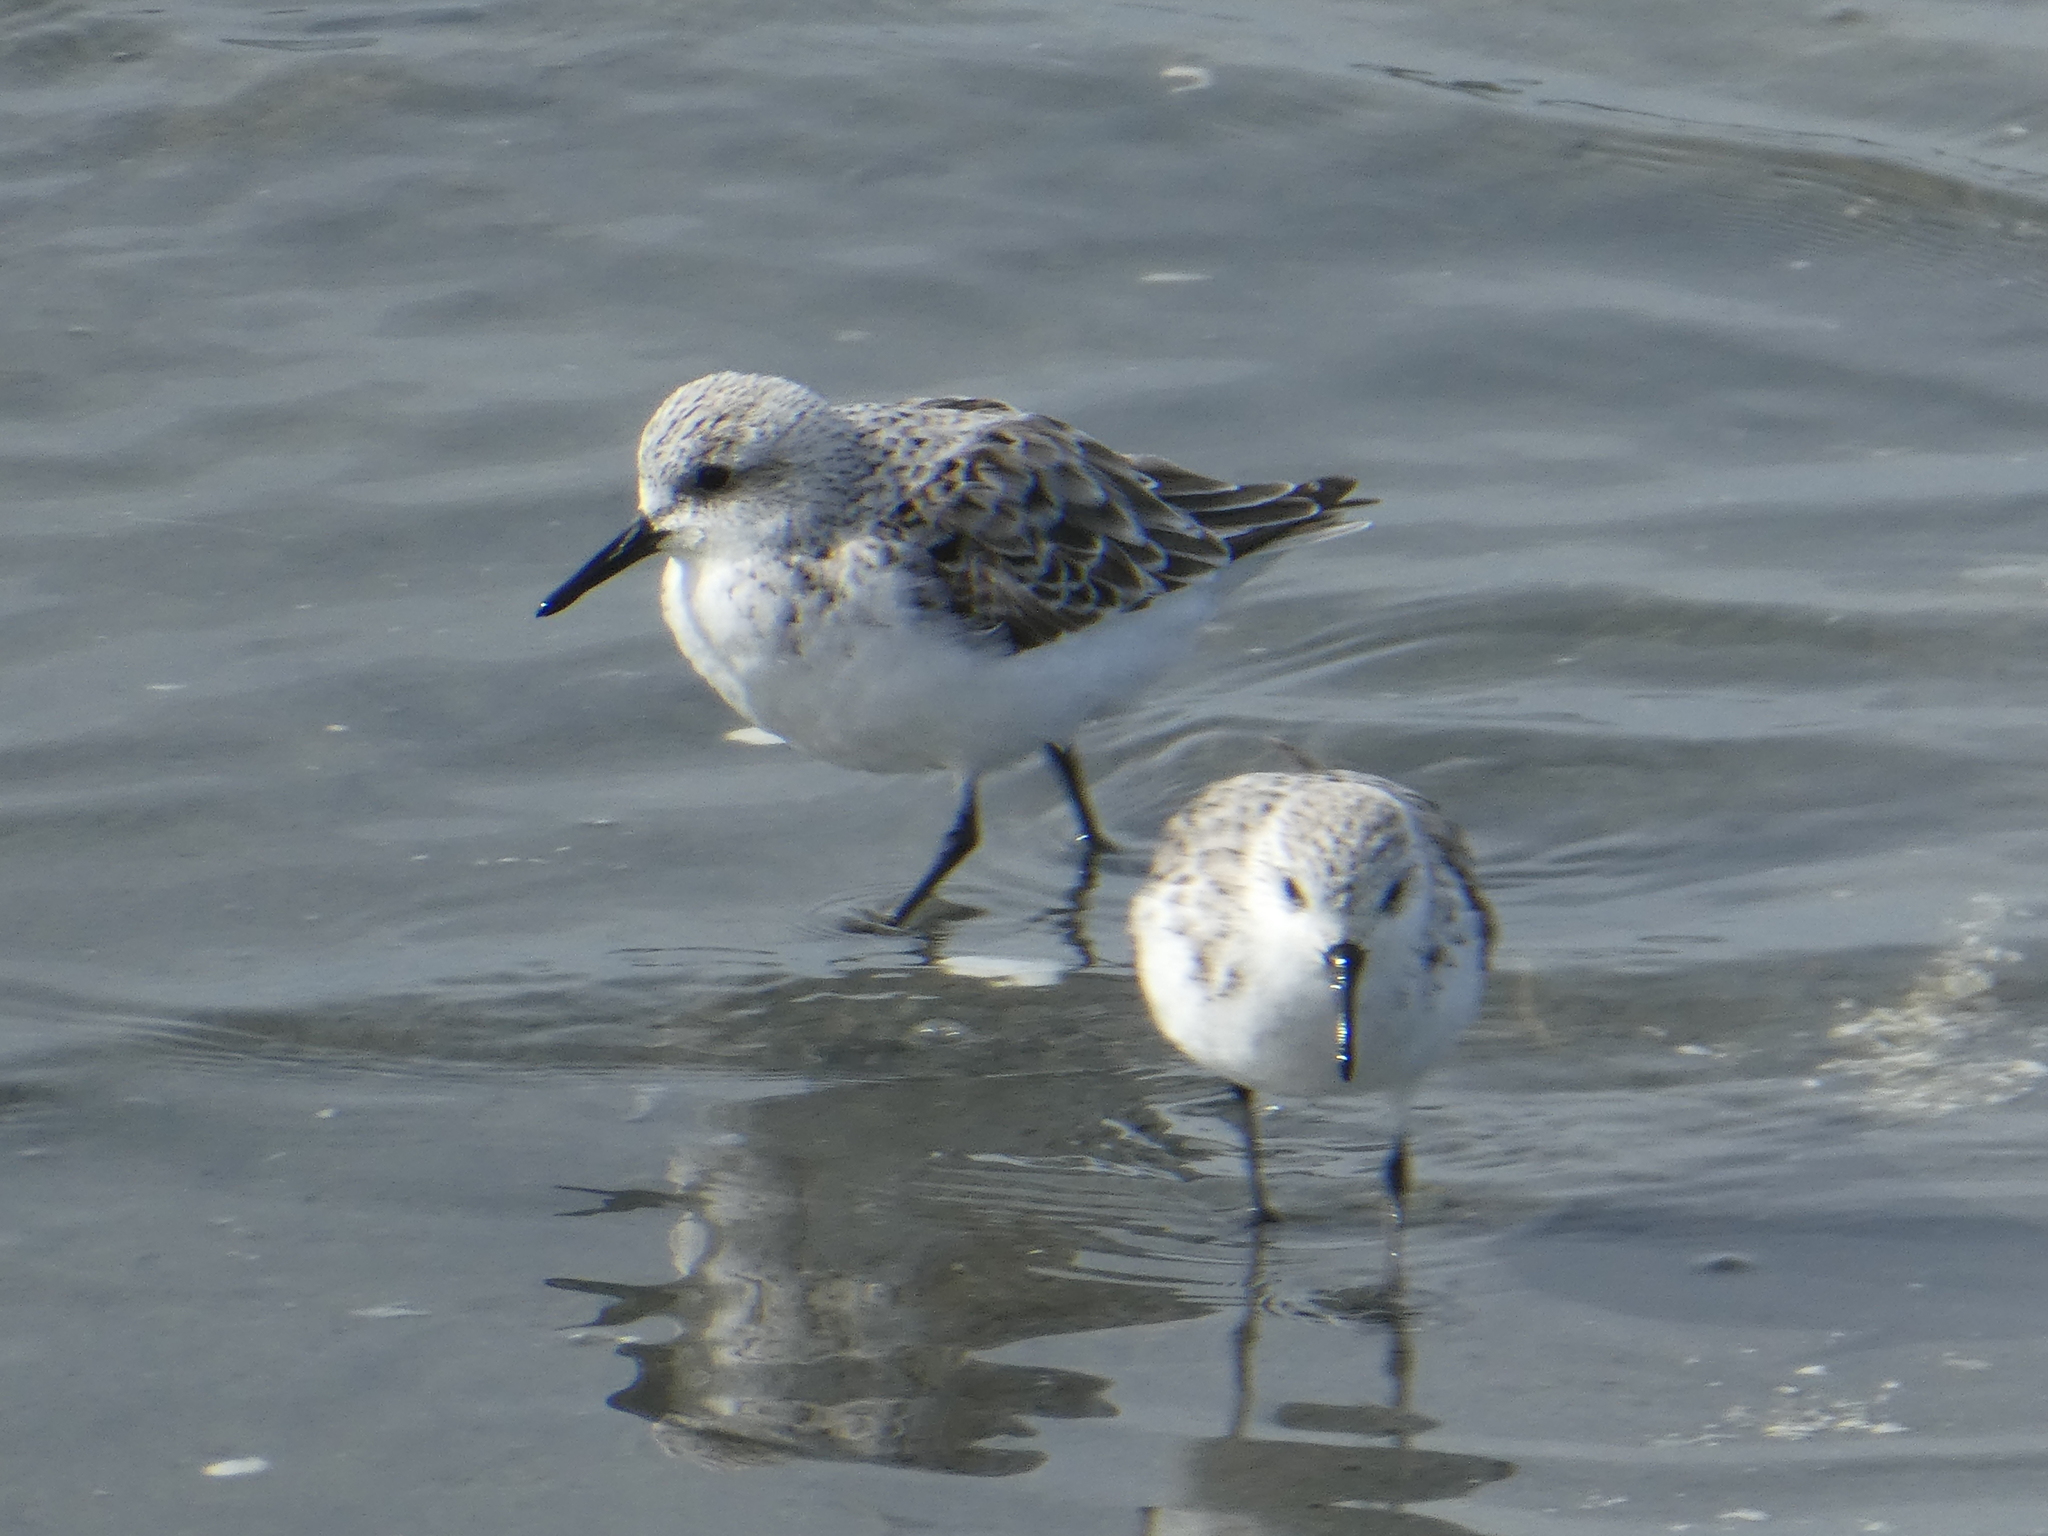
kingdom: Animalia
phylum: Chordata
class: Aves
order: Charadriiformes
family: Scolopacidae
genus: Calidris
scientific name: Calidris alba
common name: Sanderling
